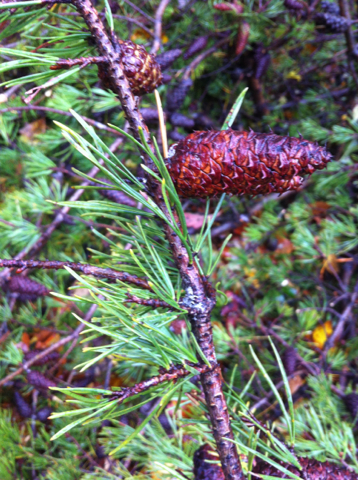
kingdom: Plantae
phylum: Tracheophyta
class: Pinopsida
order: Pinales
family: Pinaceae
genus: Pinus
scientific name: Pinus virginiana
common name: Scrub pine
